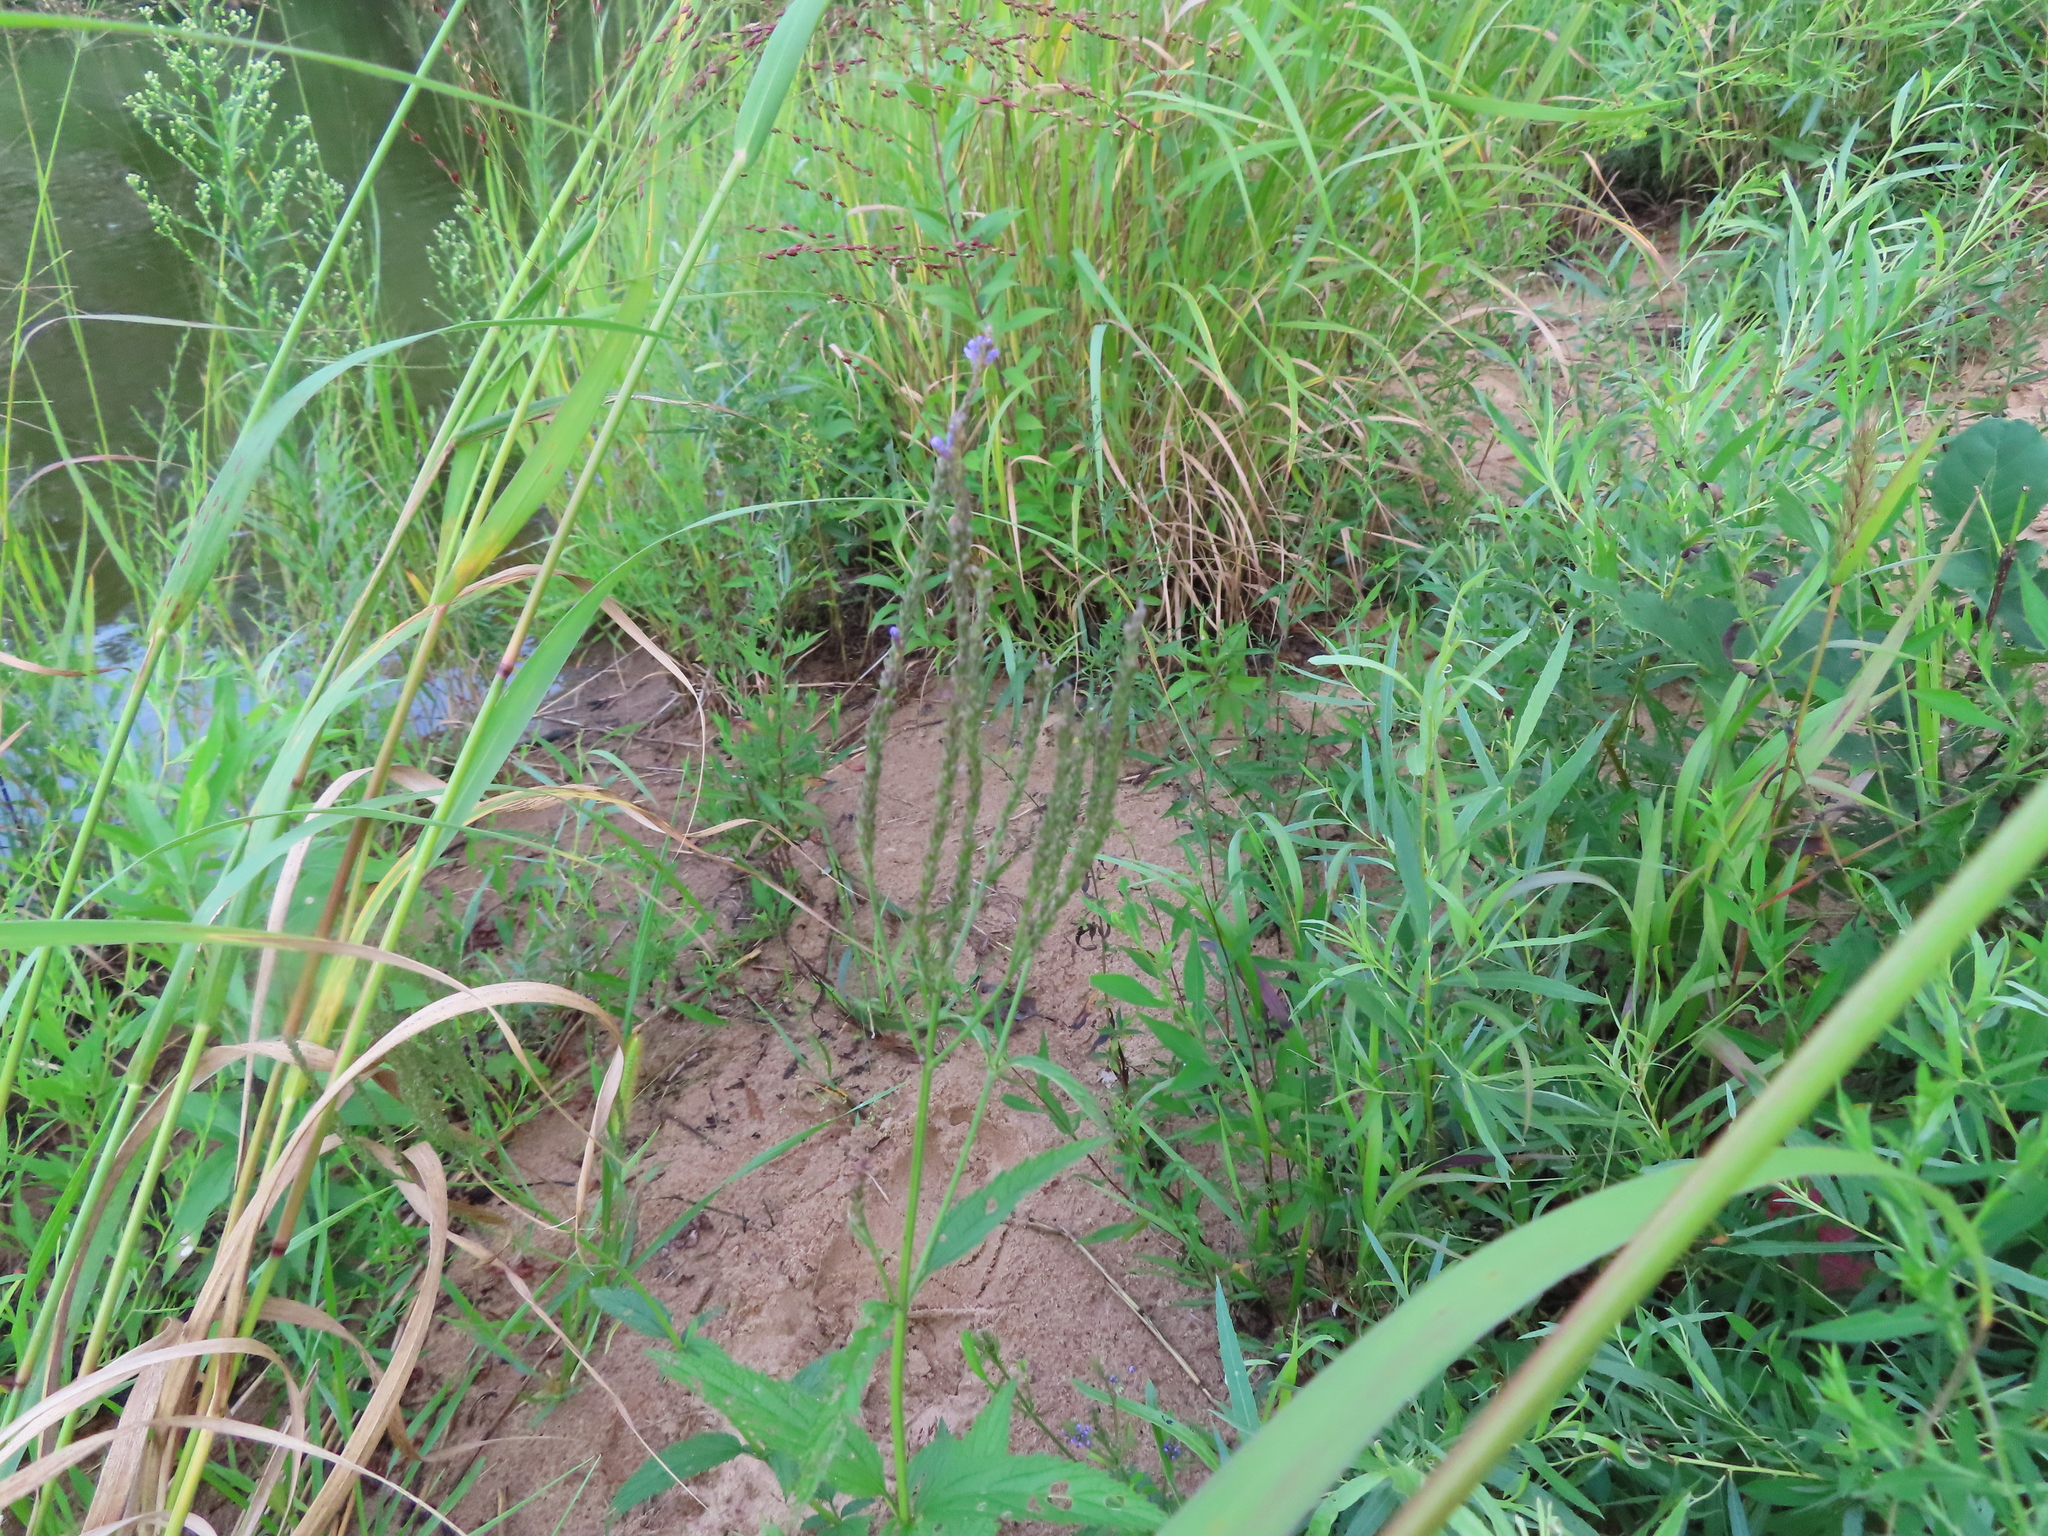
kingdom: Plantae
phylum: Tracheophyta
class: Magnoliopsida
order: Lamiales
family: Verbenaceae
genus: Verbena
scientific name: Verbena hastata
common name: American blue vervain
